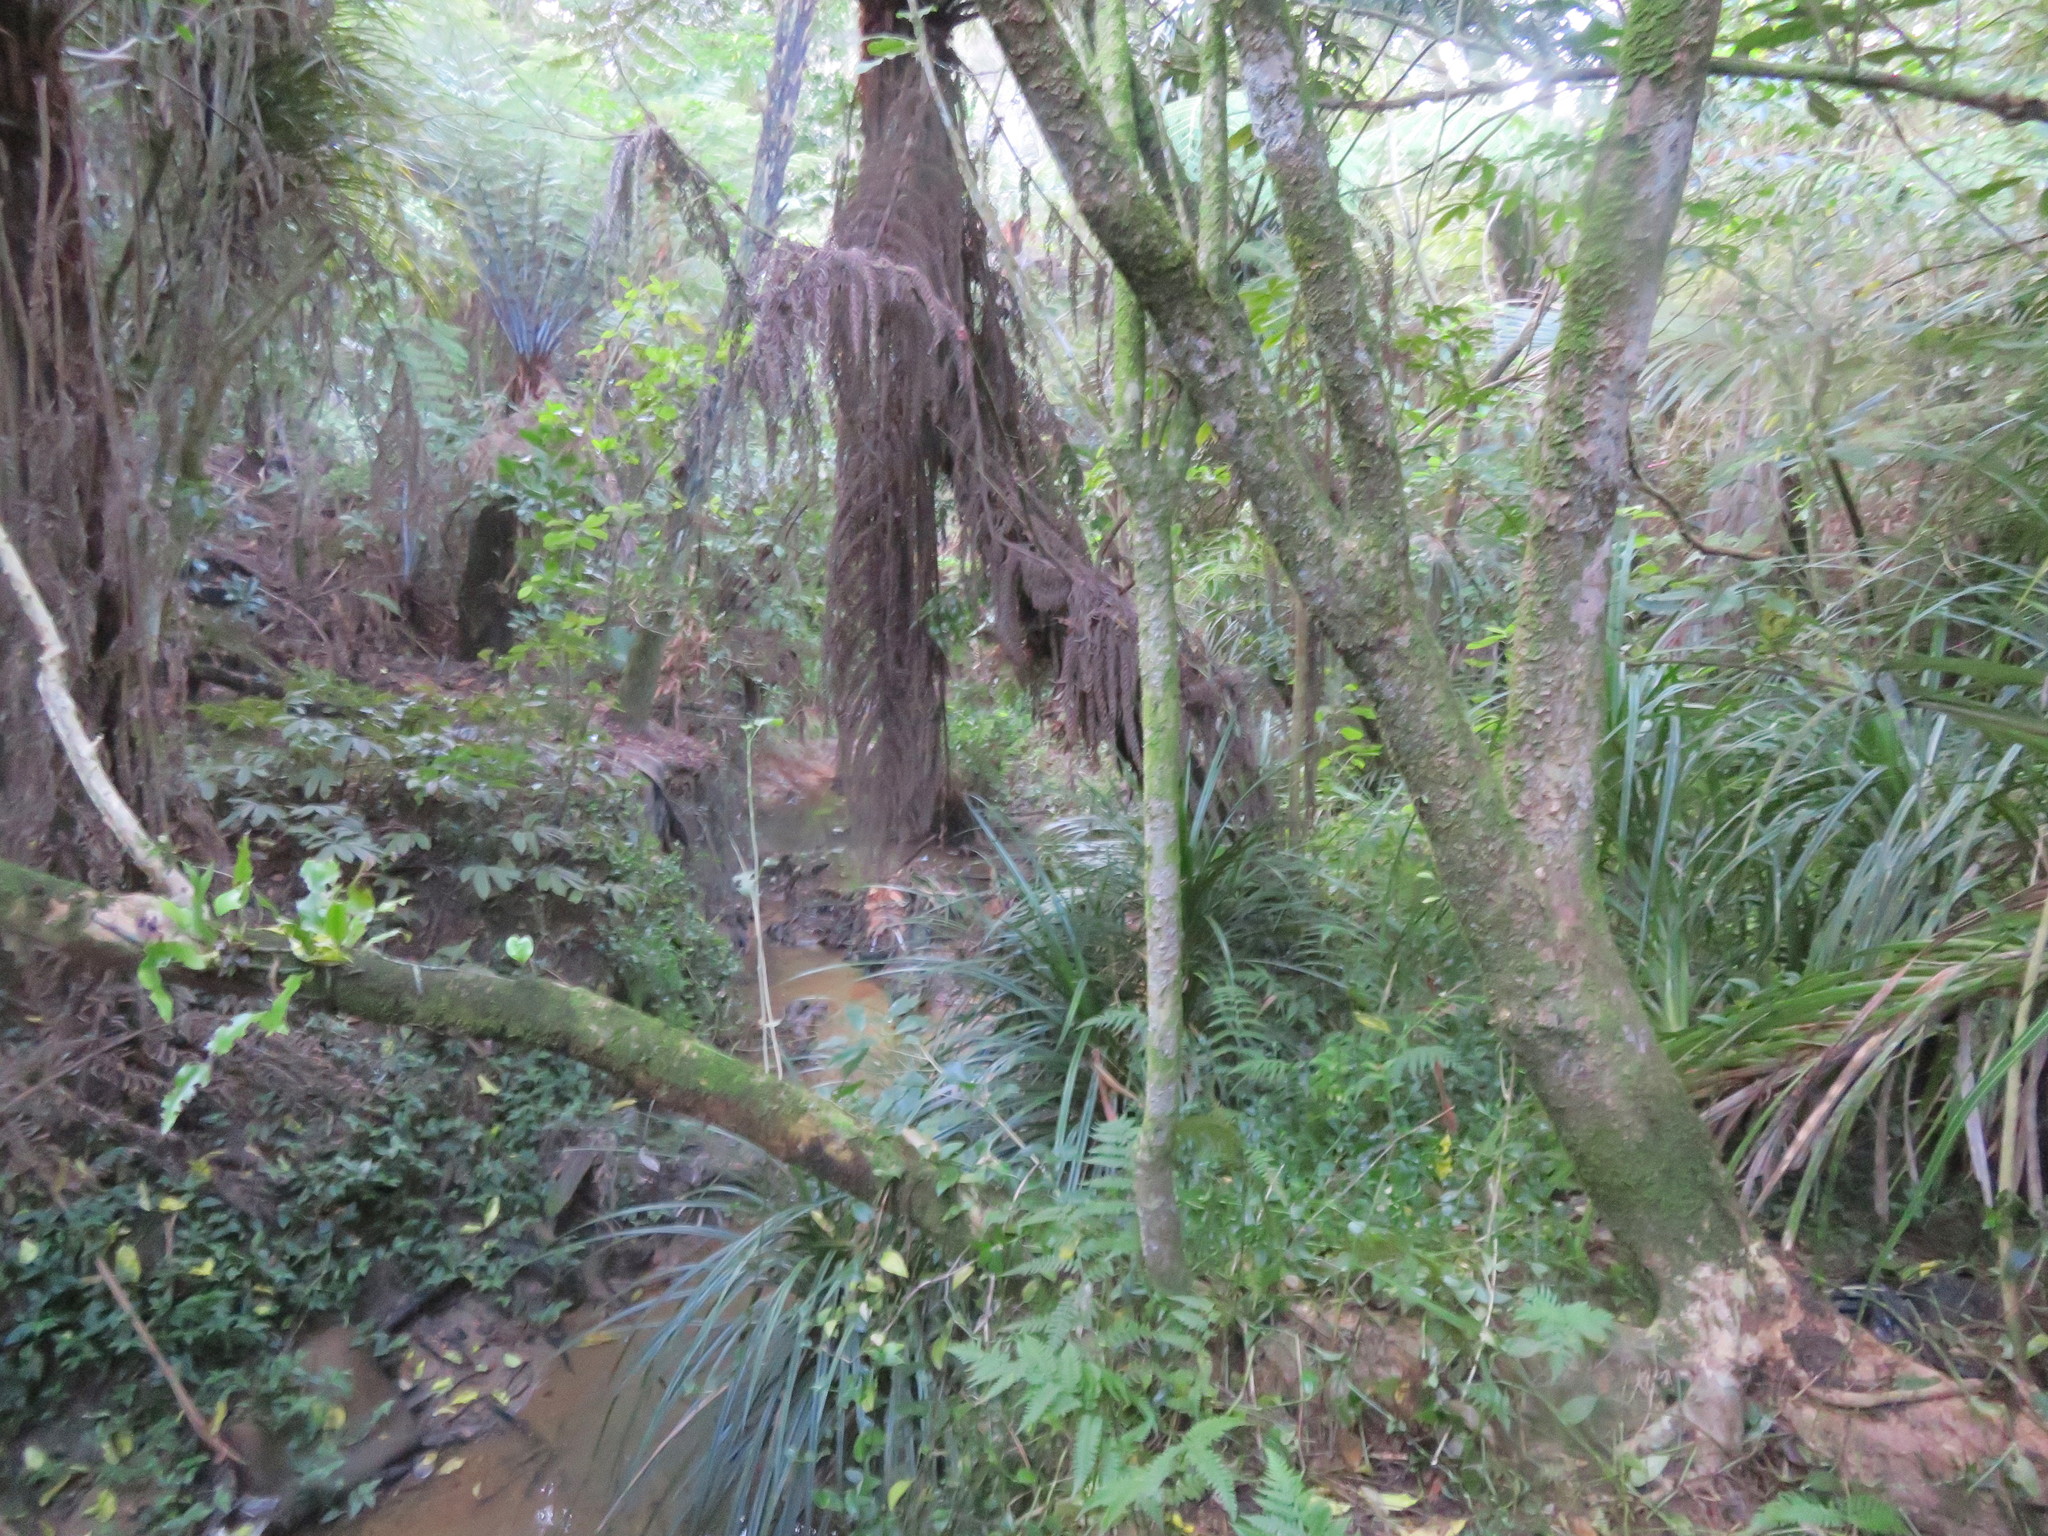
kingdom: Plantae
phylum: Tracheophyta
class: Magnoliopsida
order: Malpighiales
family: Violaceae
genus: Melicytus
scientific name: Melicytus ramiflorus
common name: Mahoe
